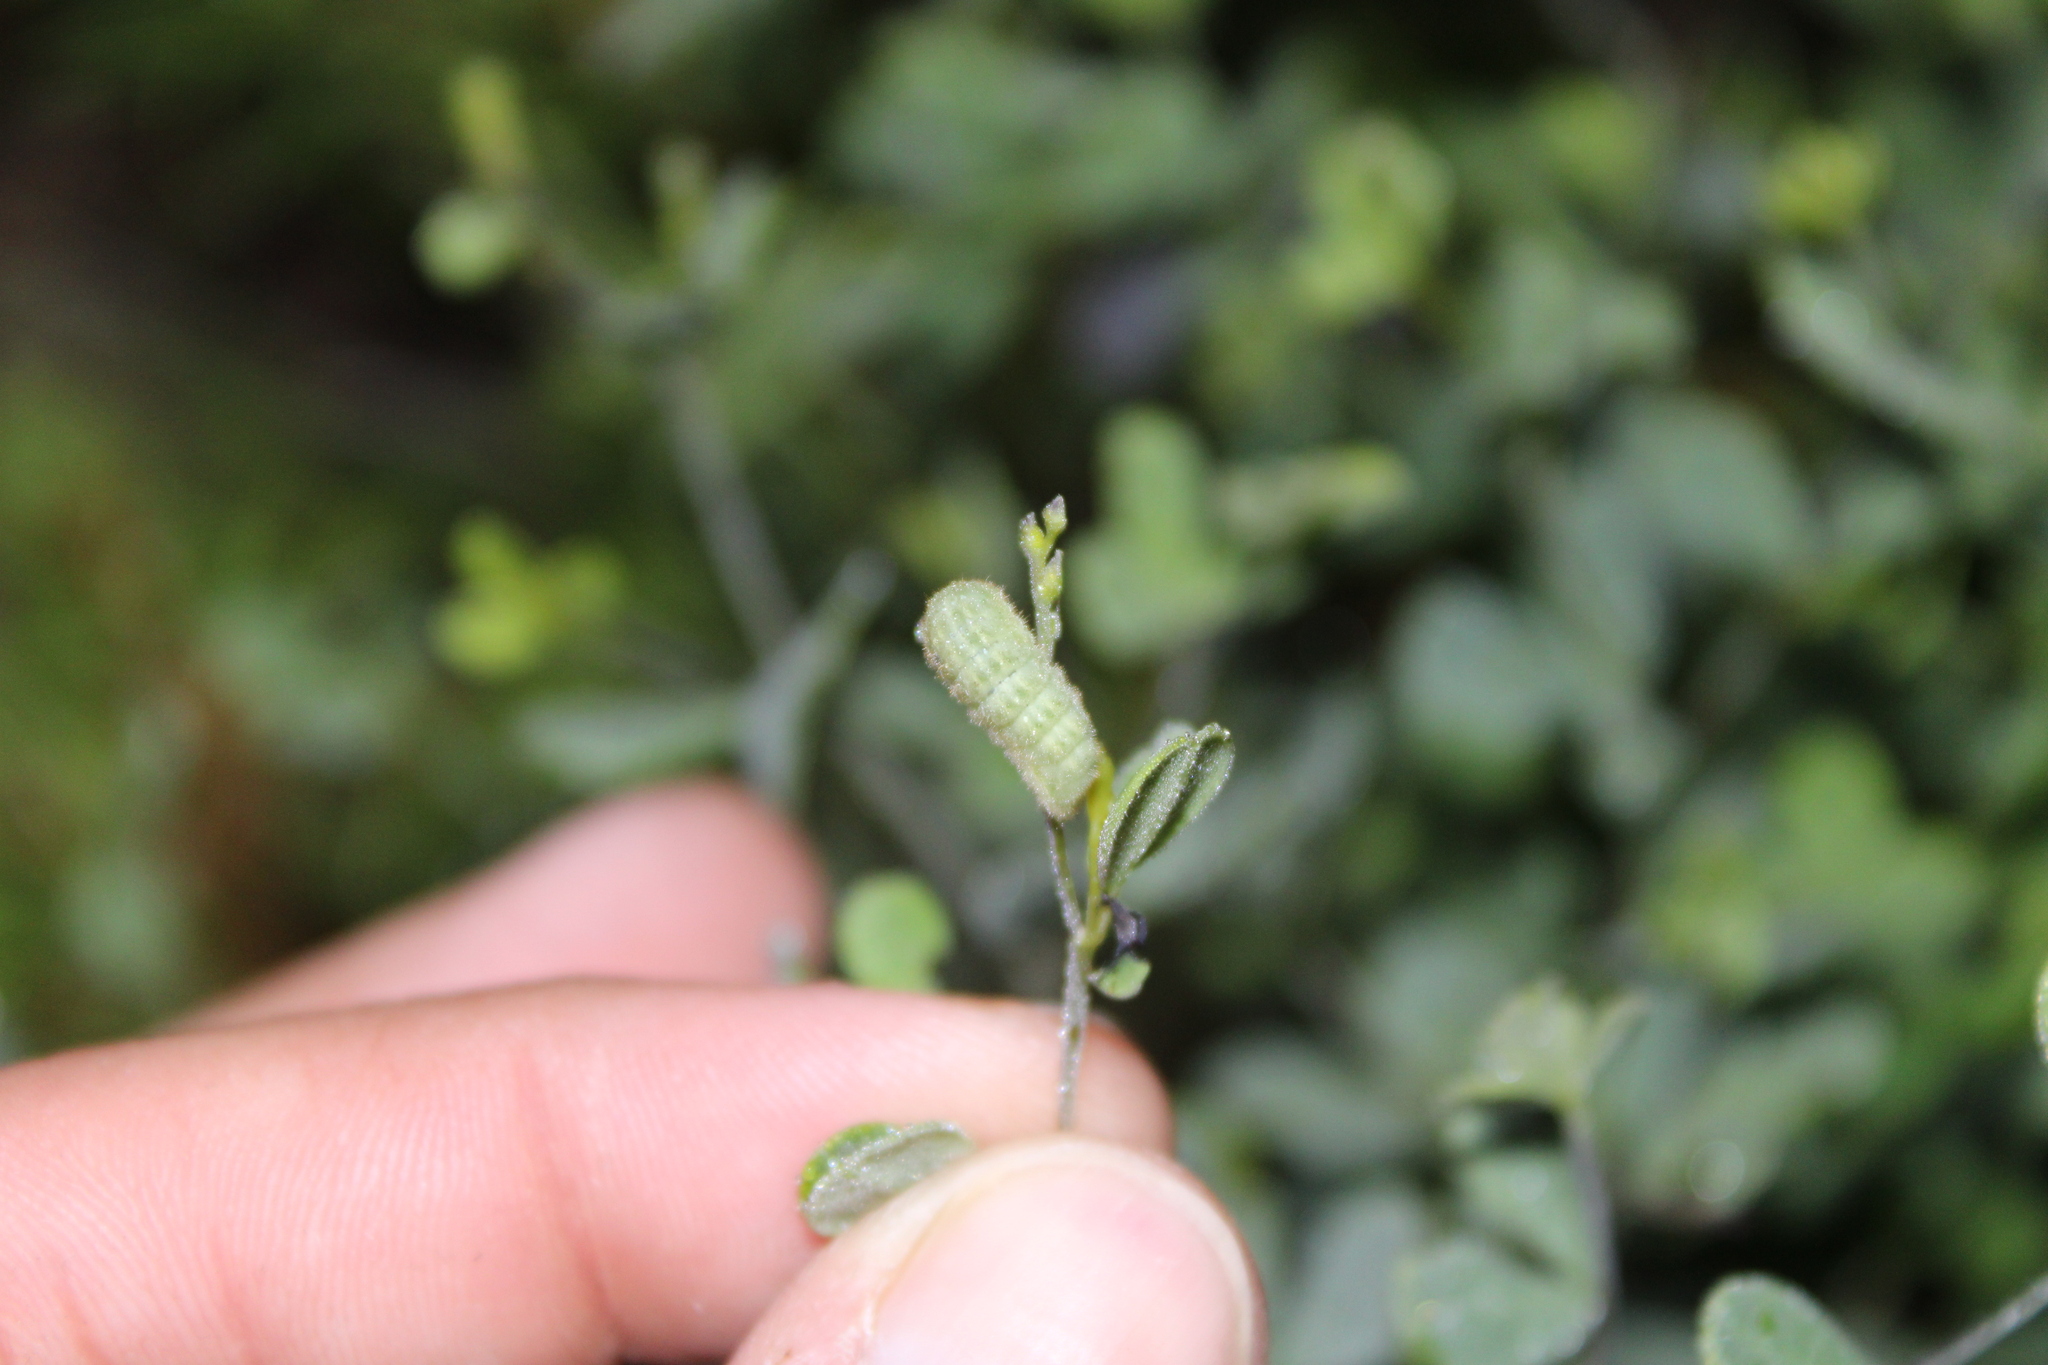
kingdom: Animalia
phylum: Arthropoda
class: Insecta
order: Lepidoptera
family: Lycaenidae
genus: Thecla
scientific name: Thecla irus
